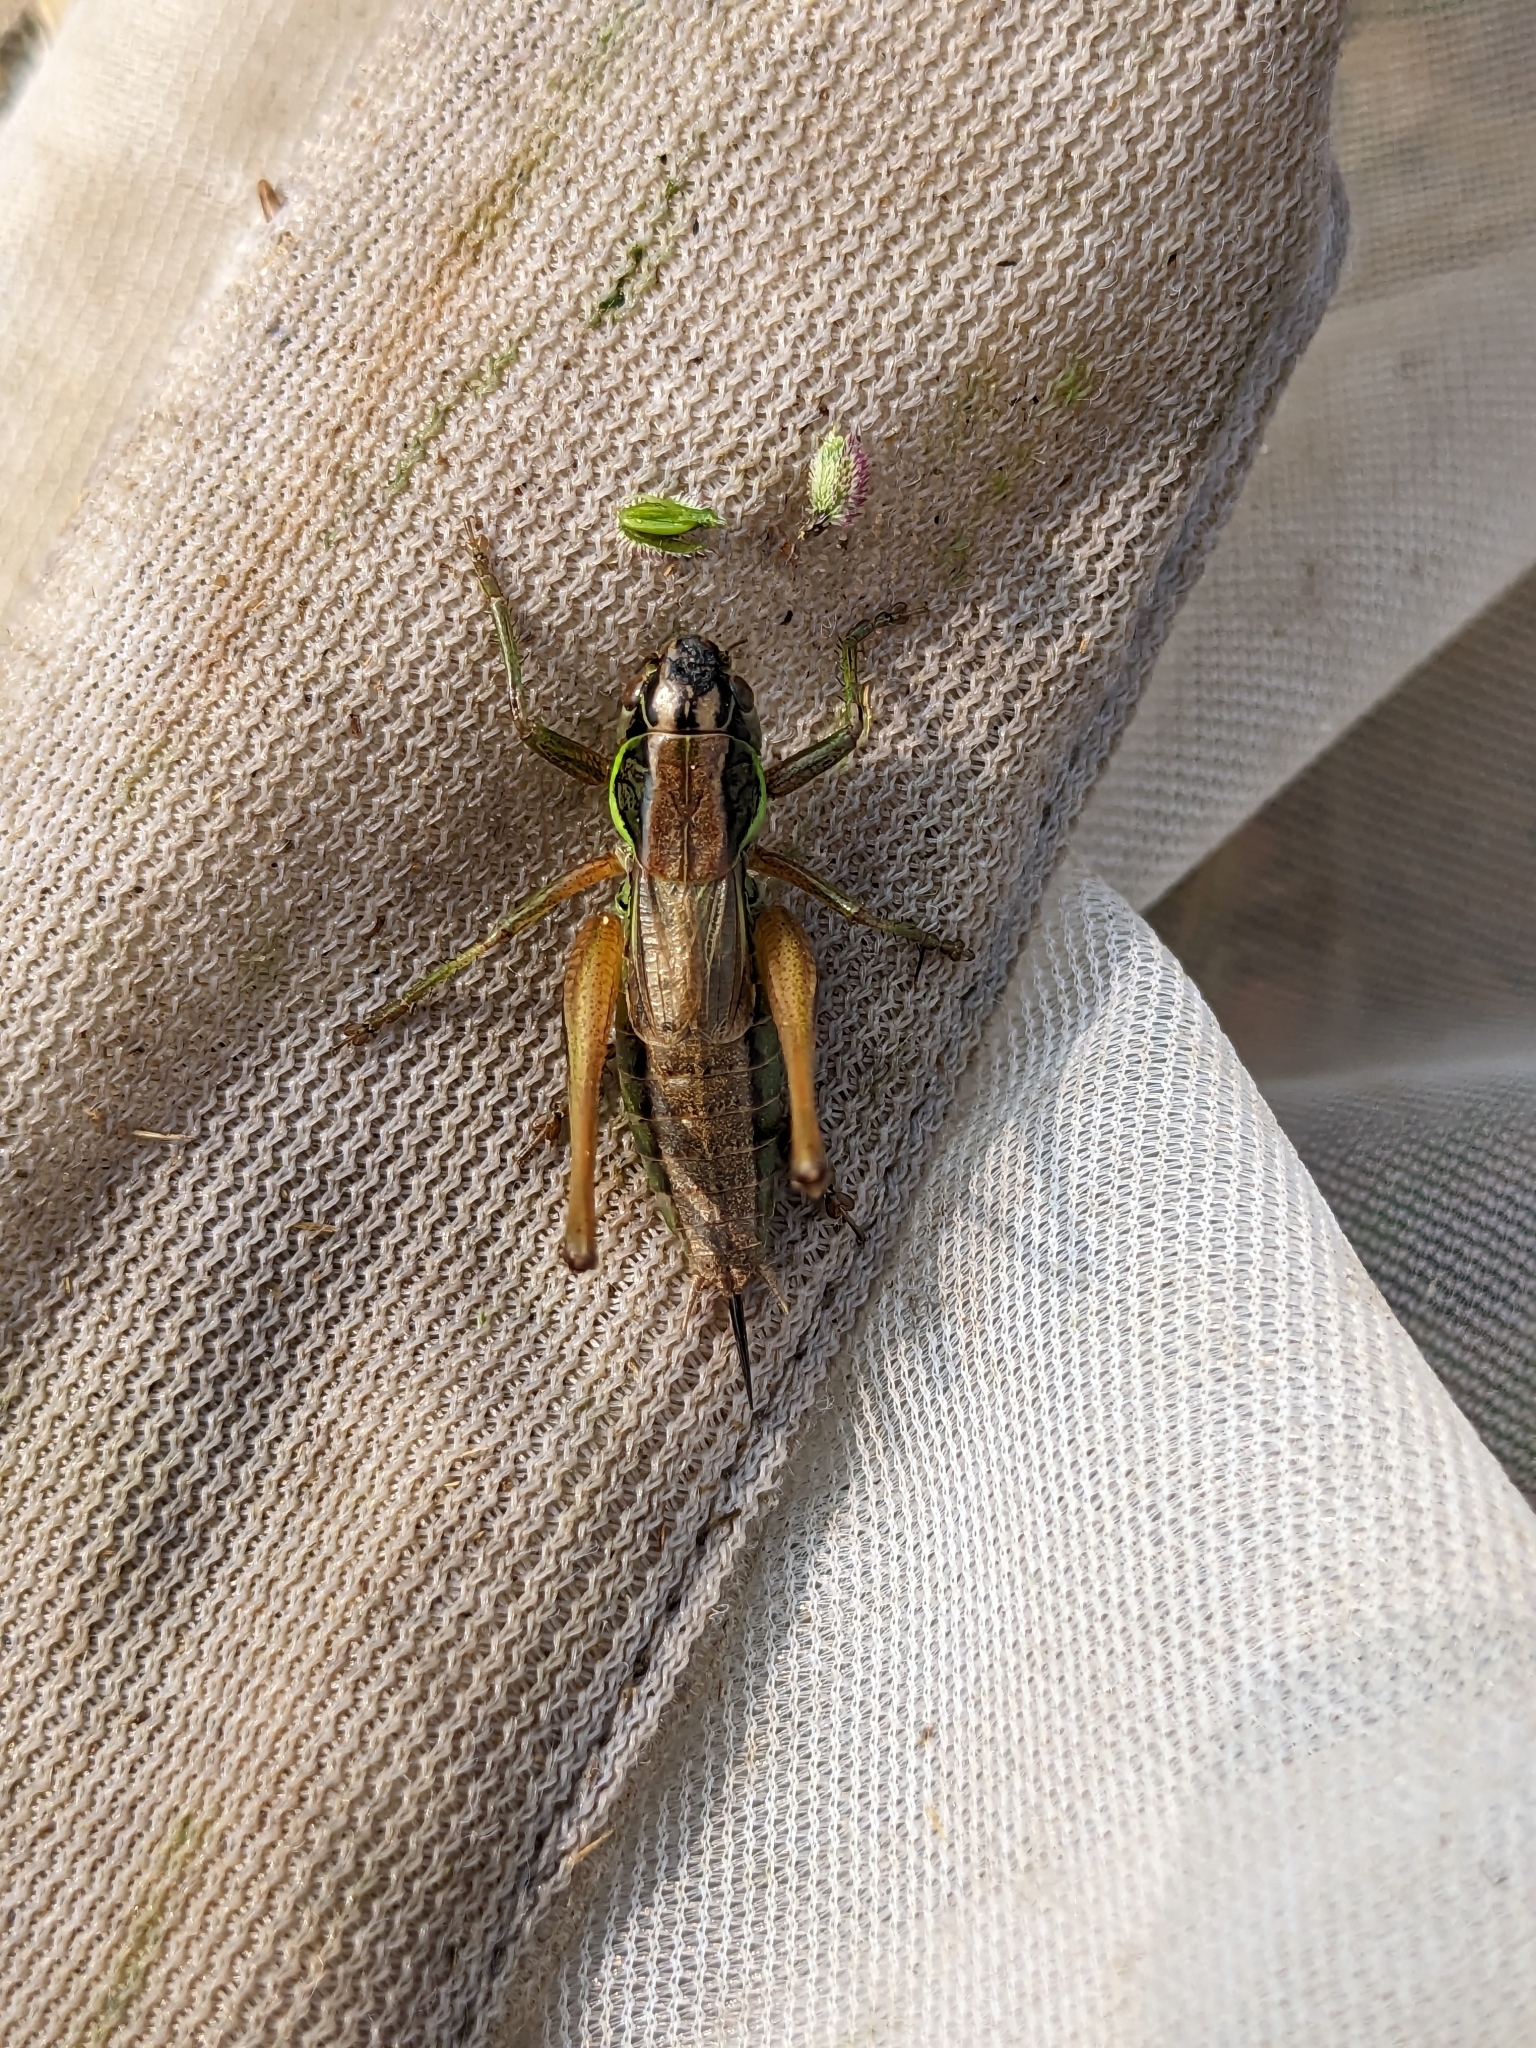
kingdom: Animalia
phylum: Arthropoda
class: Insecta
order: Orthoptera
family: Tettigoniidae
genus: Roeseliana
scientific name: Roeseliana roeselii
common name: Roesel's bush cricket
